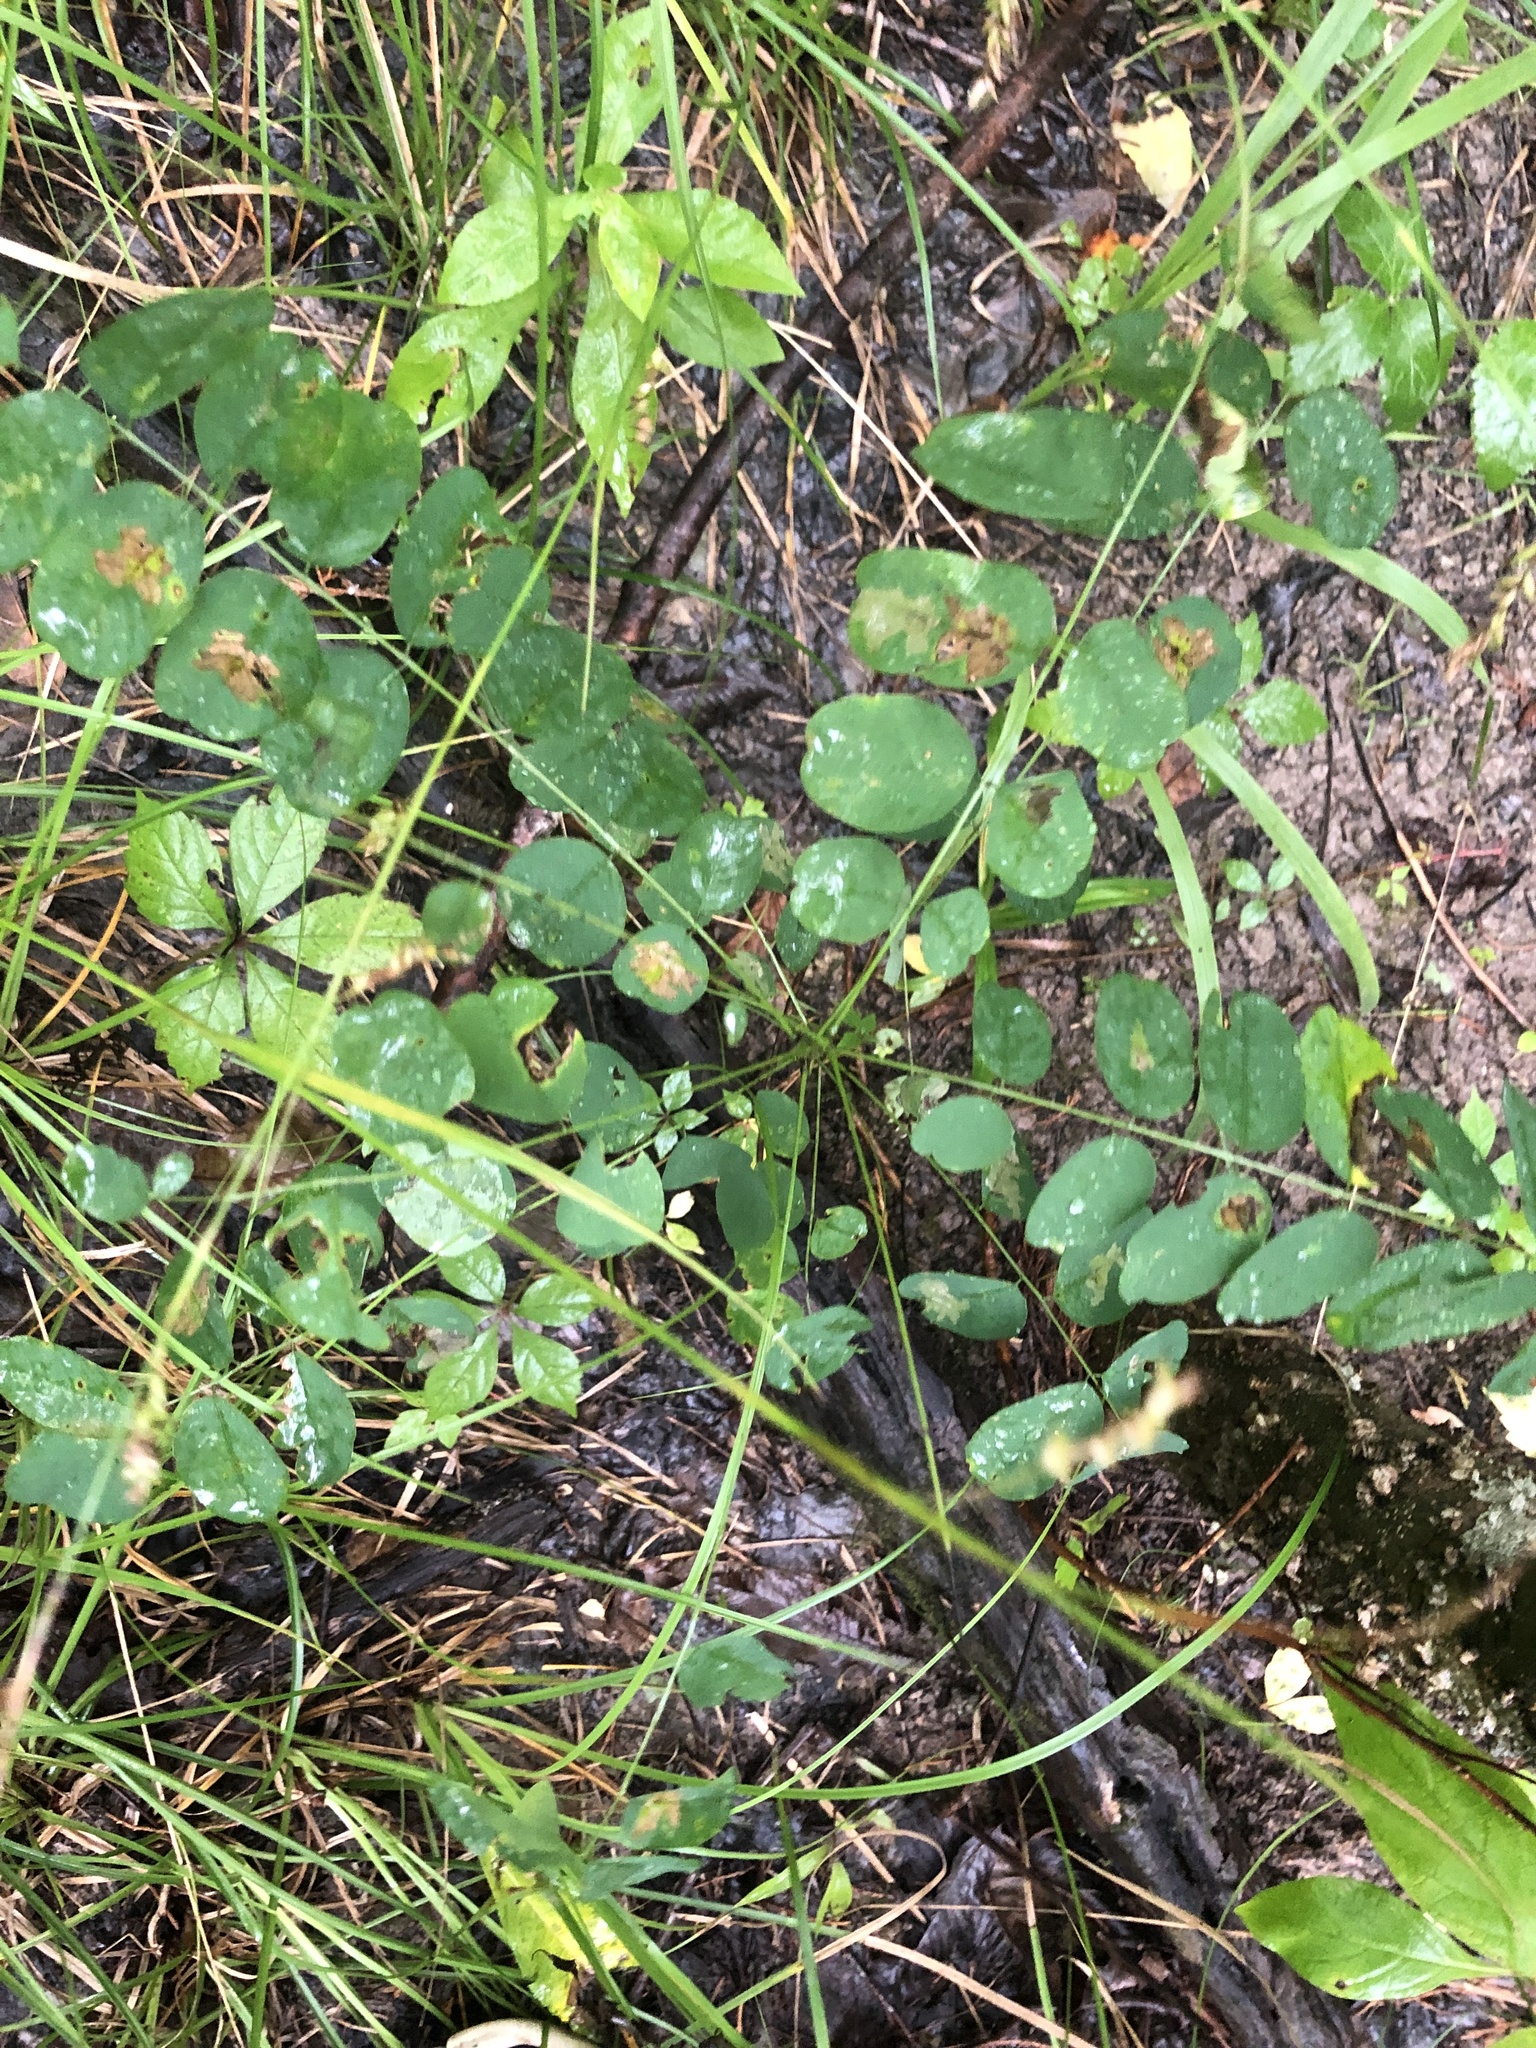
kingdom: Plantae
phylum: Tracheophyta
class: Magnoliopsida
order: Fabales
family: Fabaceae
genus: Amorpha
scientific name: Amorpha fruticosa
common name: False indigo
